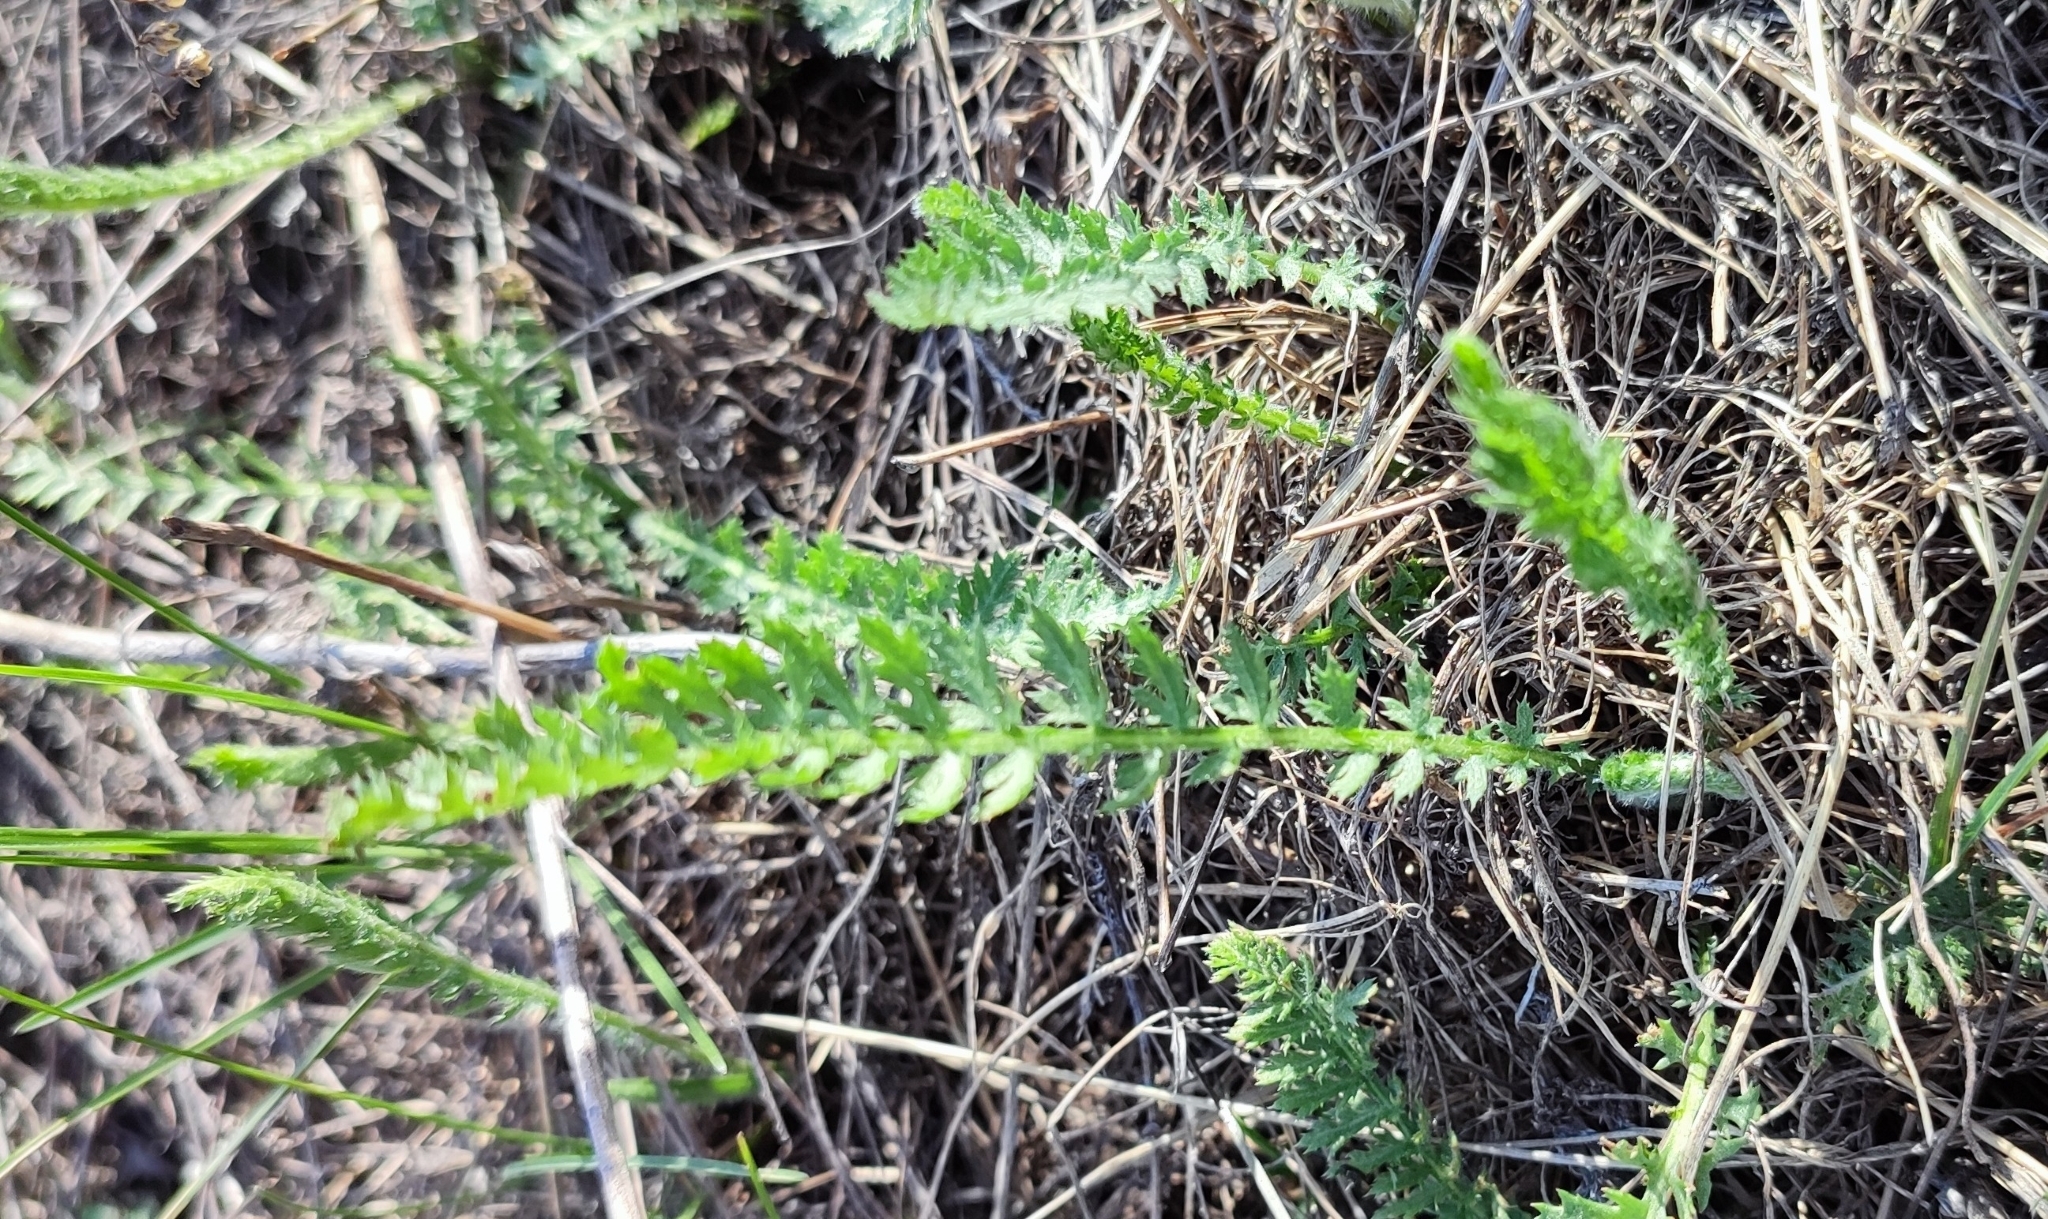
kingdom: Plantae
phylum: Tracheophyta
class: Magnoliopsida
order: Asterales
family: Asteraceae
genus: Achillea
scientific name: Achillea millefolium
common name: Yarrow
